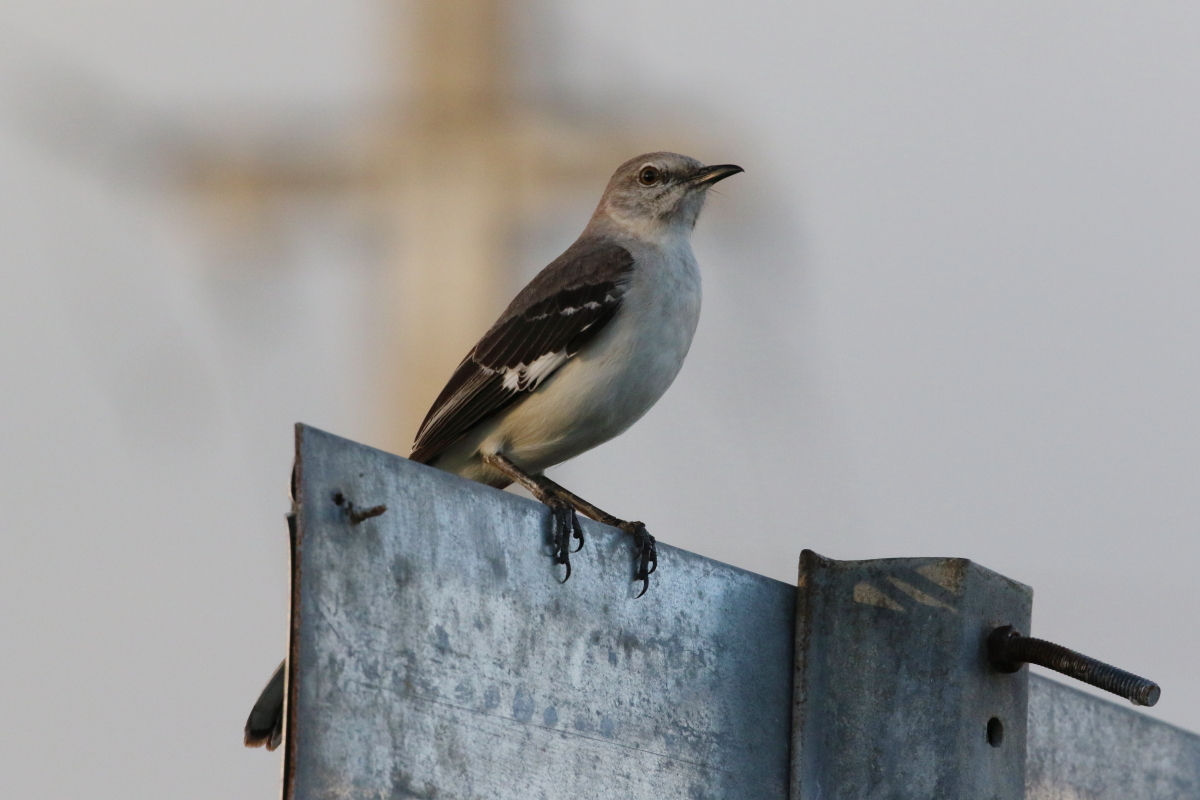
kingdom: Animalia
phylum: Chordata
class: Aves
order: Passeriformes
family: Mimidae
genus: Mimus
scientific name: Mimus polyglottos
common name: Northern mockingbird
